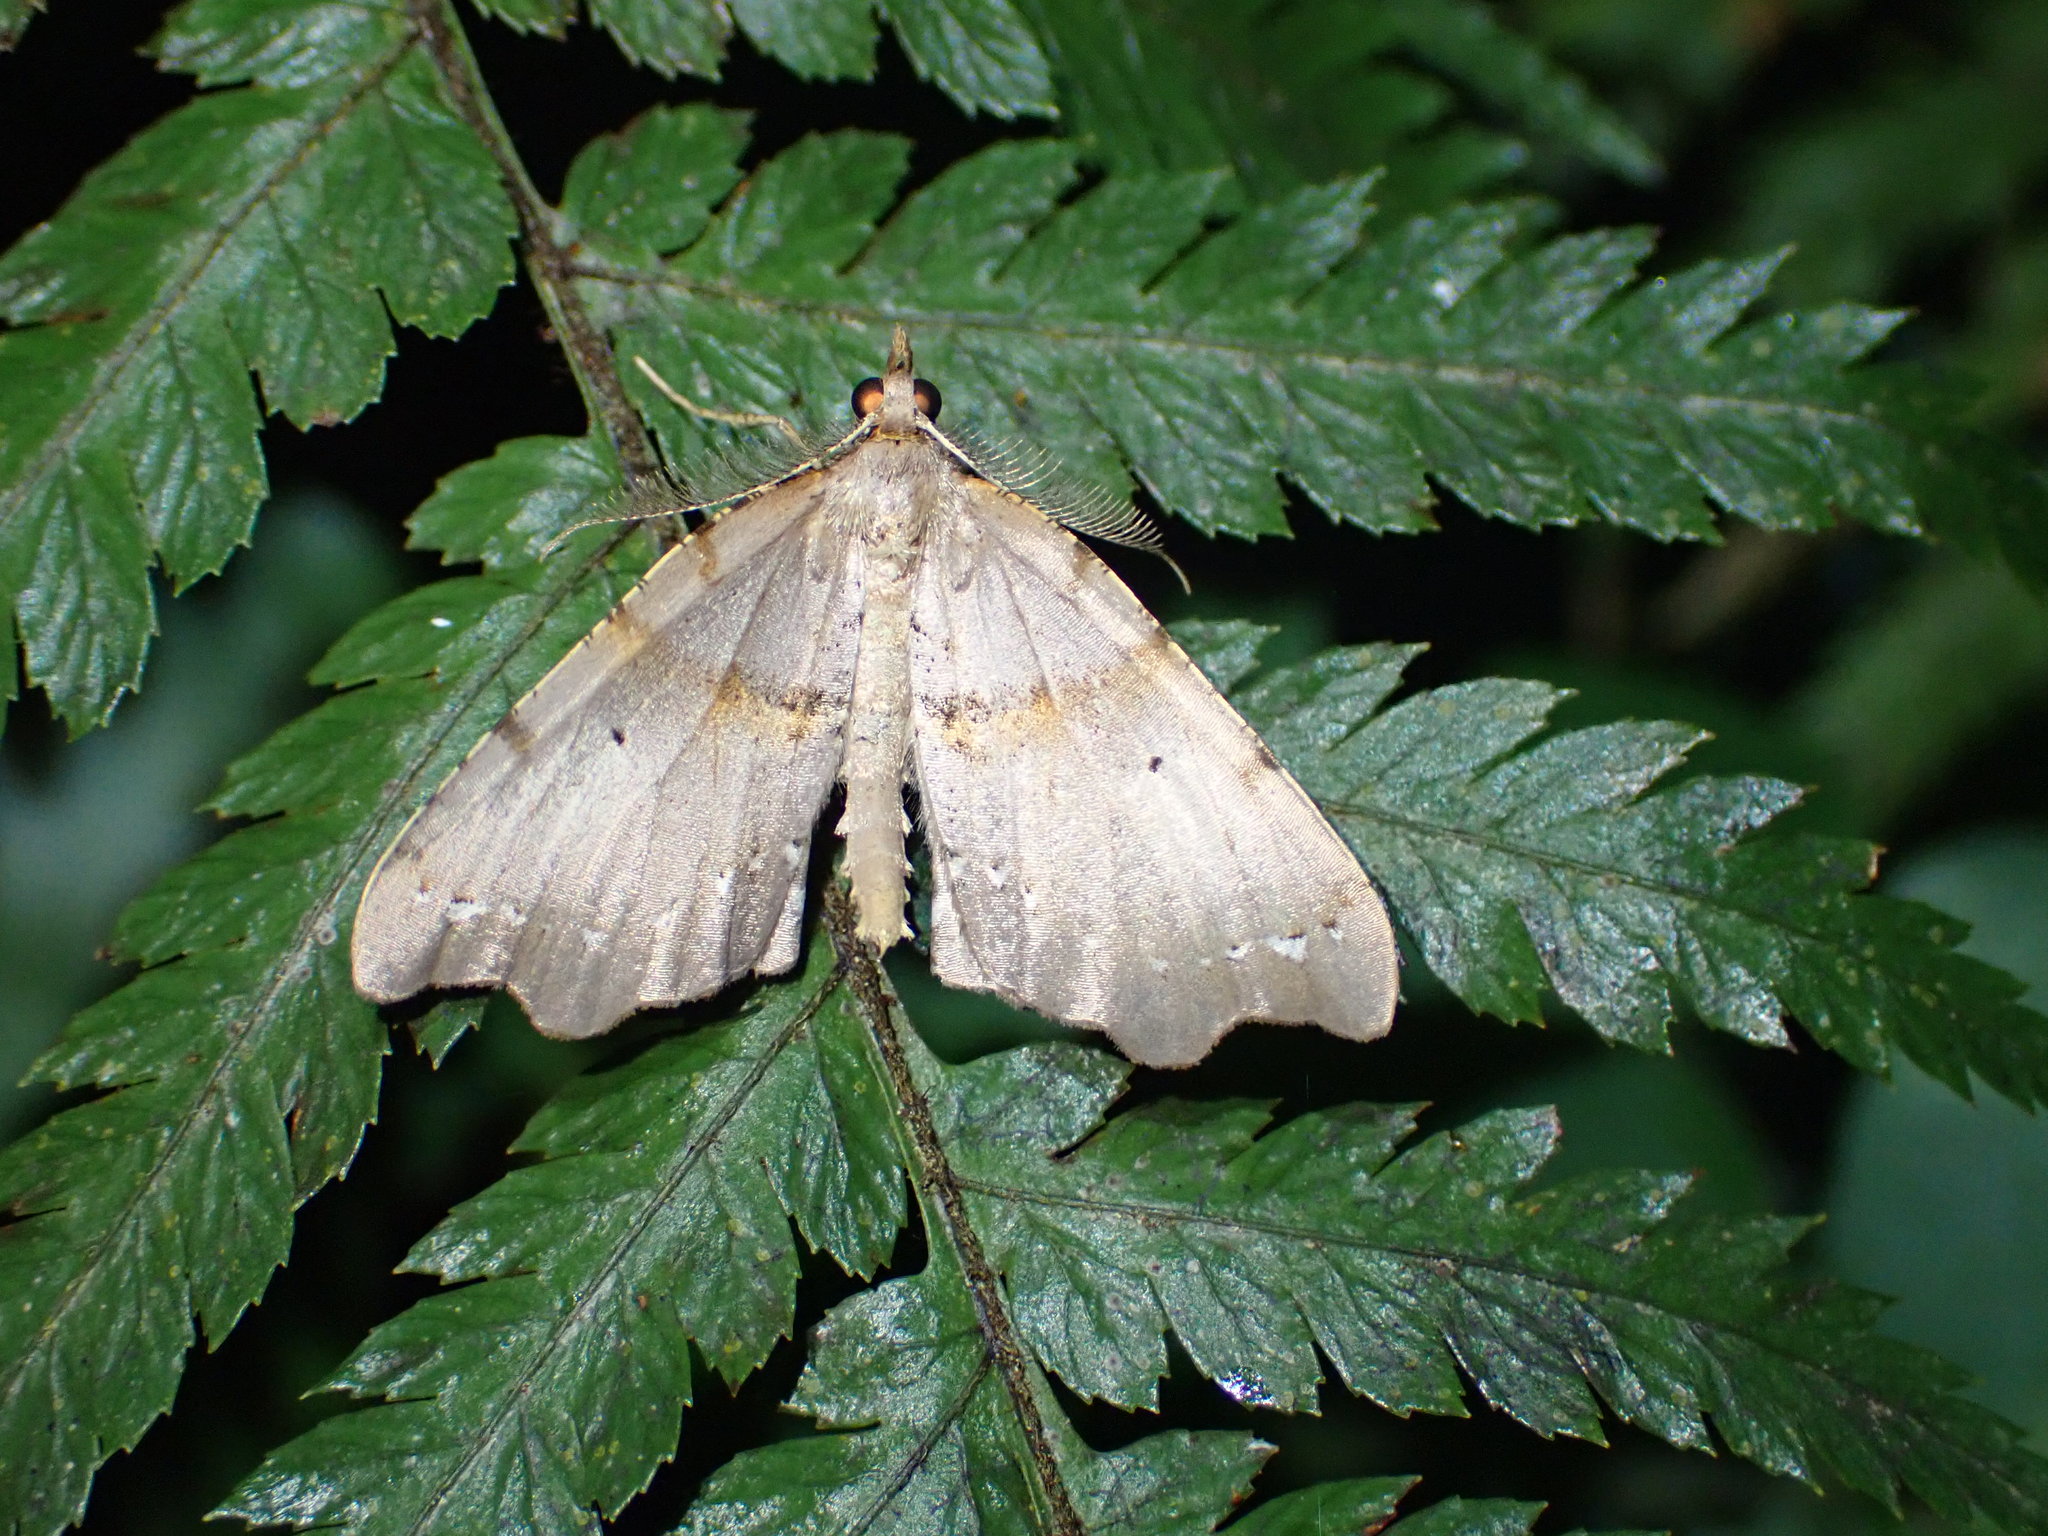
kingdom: Animalia
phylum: Arthropoda
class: Insecta
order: Lepidoptera
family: Geometridae
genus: Chalastra
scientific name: Chalastra pellurgata
